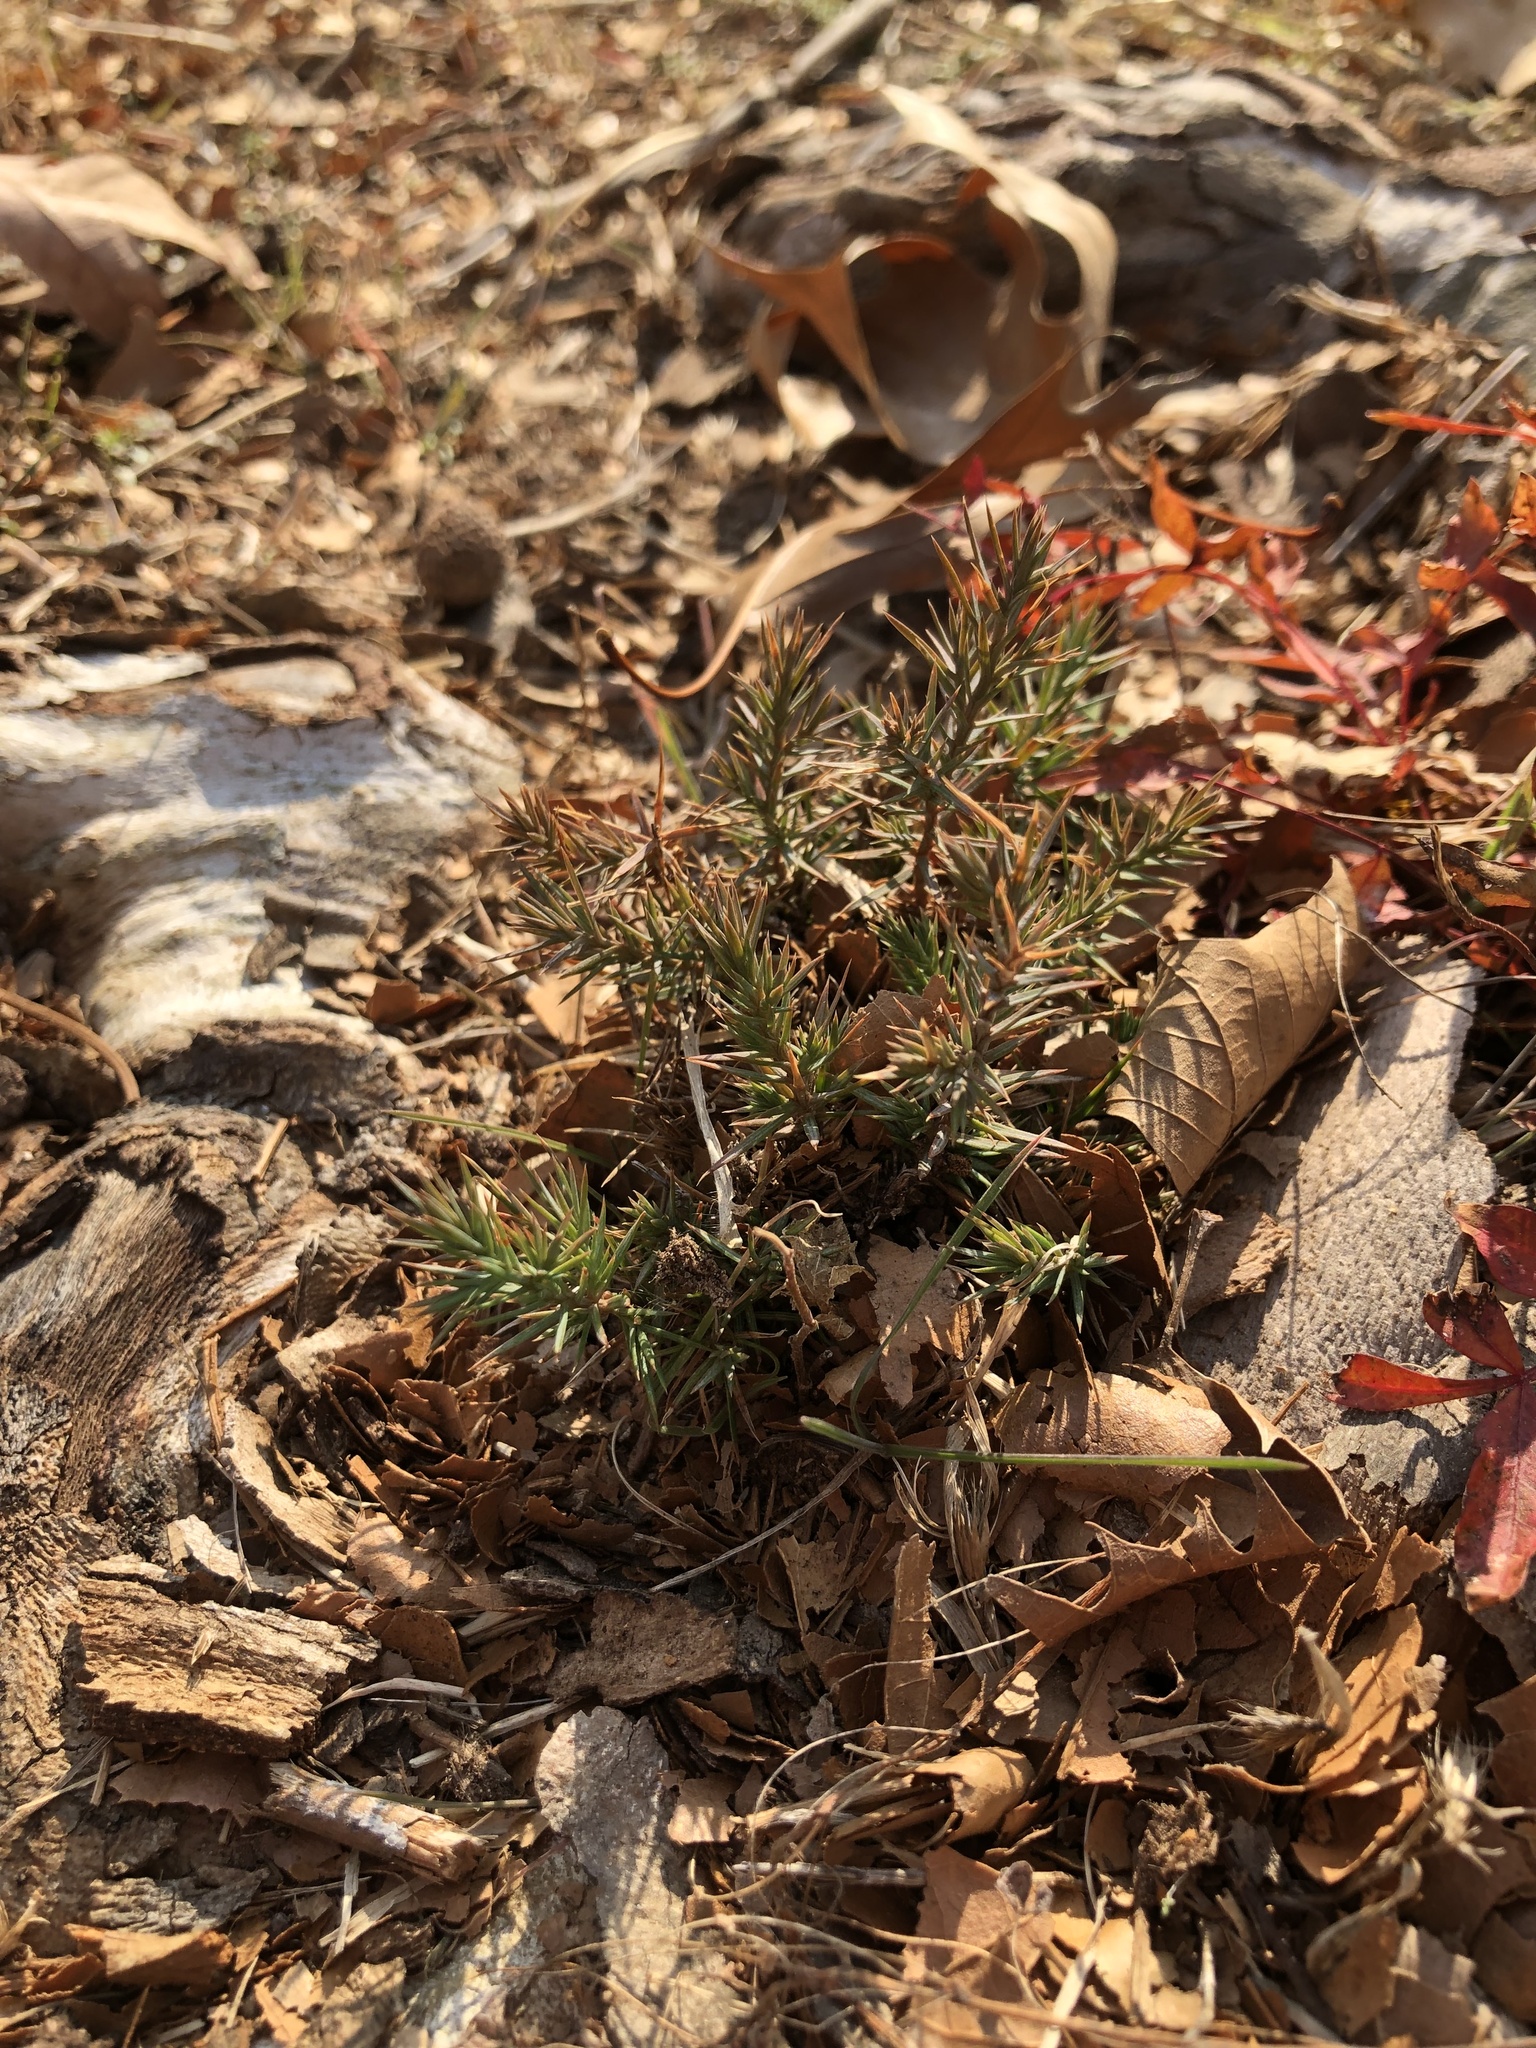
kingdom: Plantae
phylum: Tracheophyta
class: Pinopsida
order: Pinales
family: Cupressaceae
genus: Juniperus
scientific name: Juniperus virginiana
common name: Red juniper
